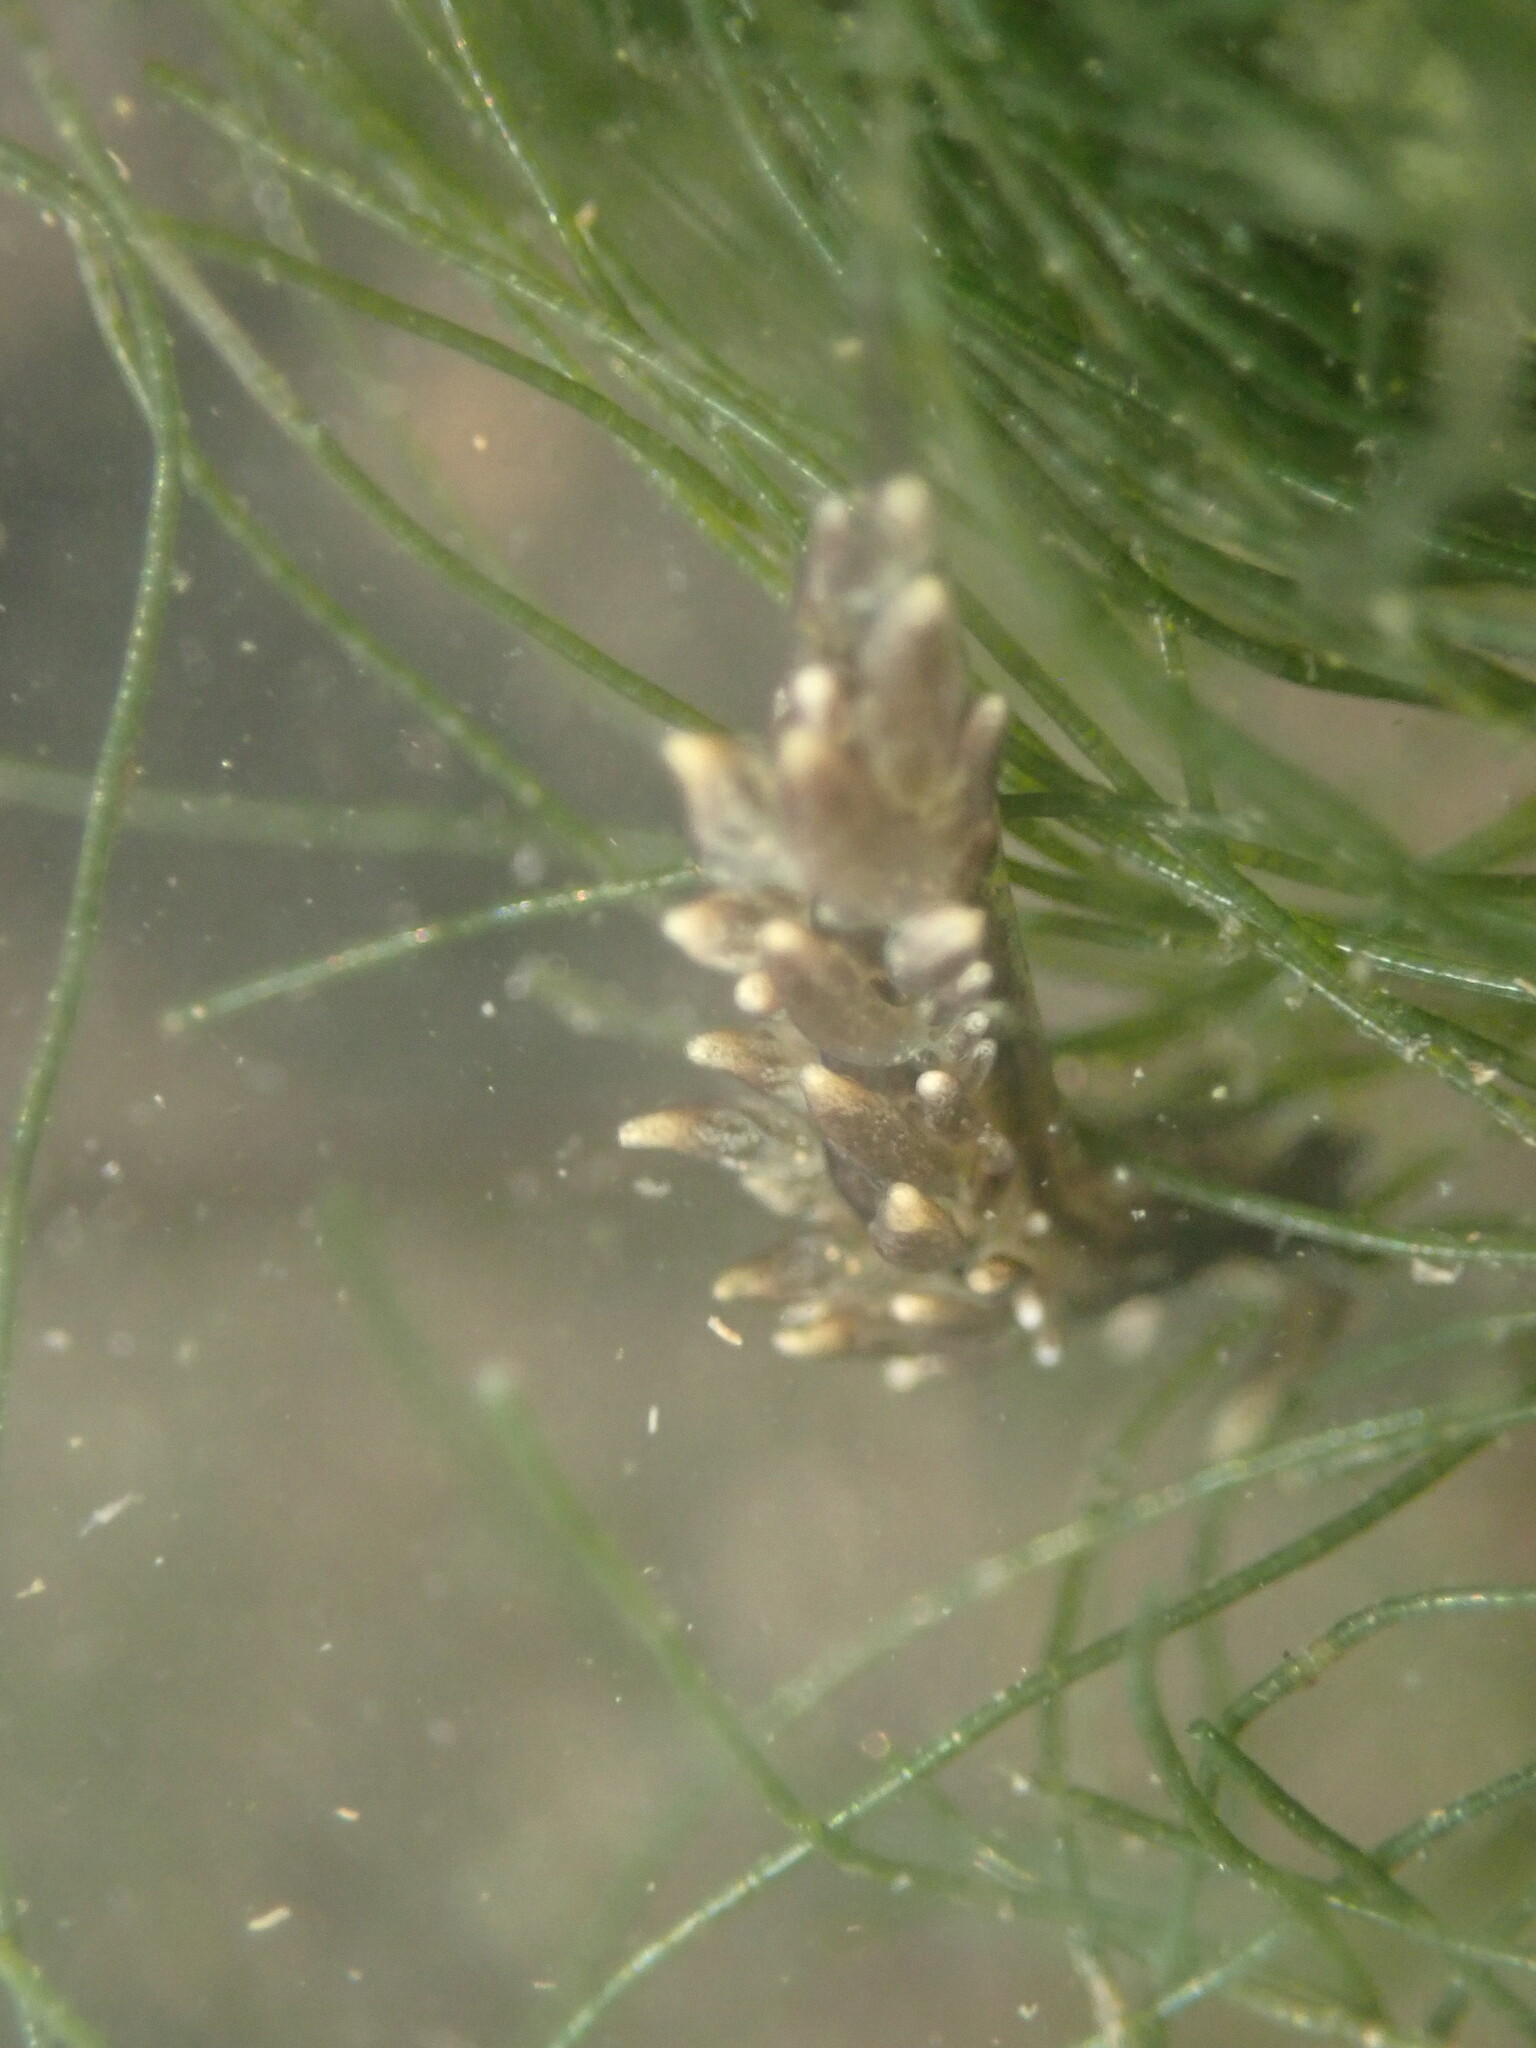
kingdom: Animalia
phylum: Mollusca
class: Gastropoda
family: Hermaeidae
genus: Aplysiopsis
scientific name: Aplysiopsis enteromorphae
